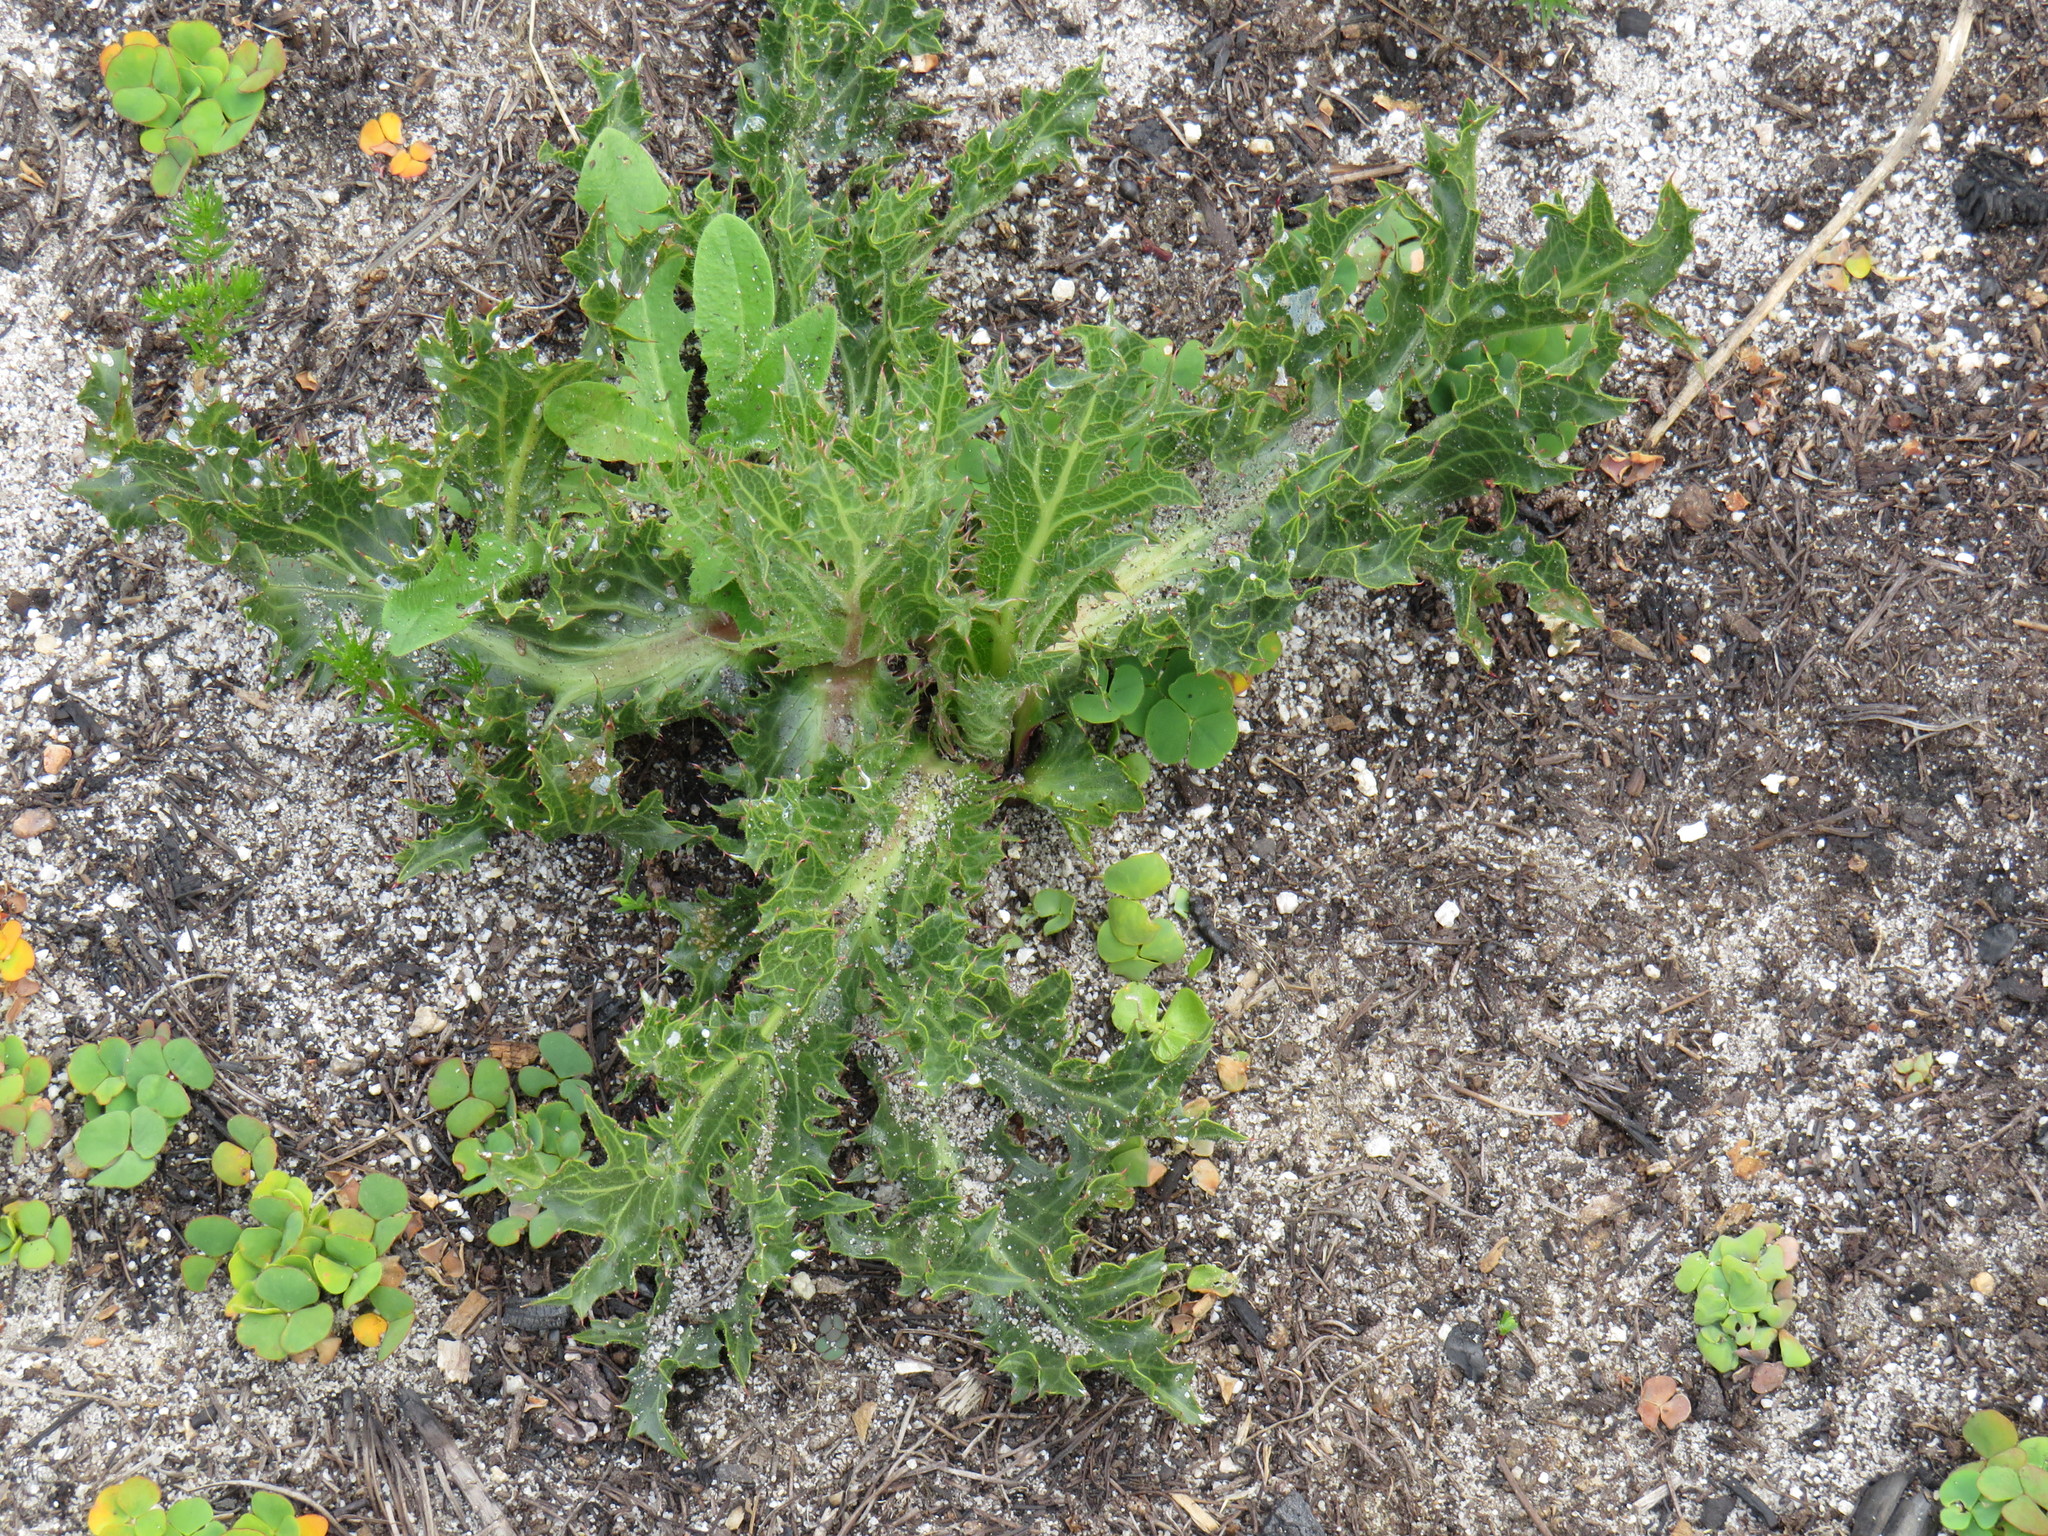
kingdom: Plantae
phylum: Tracheophyta
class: Magnoliopsida
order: Apiales
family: Apiaceae
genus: Lichtensteinia
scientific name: Lichtensteinia lacera
